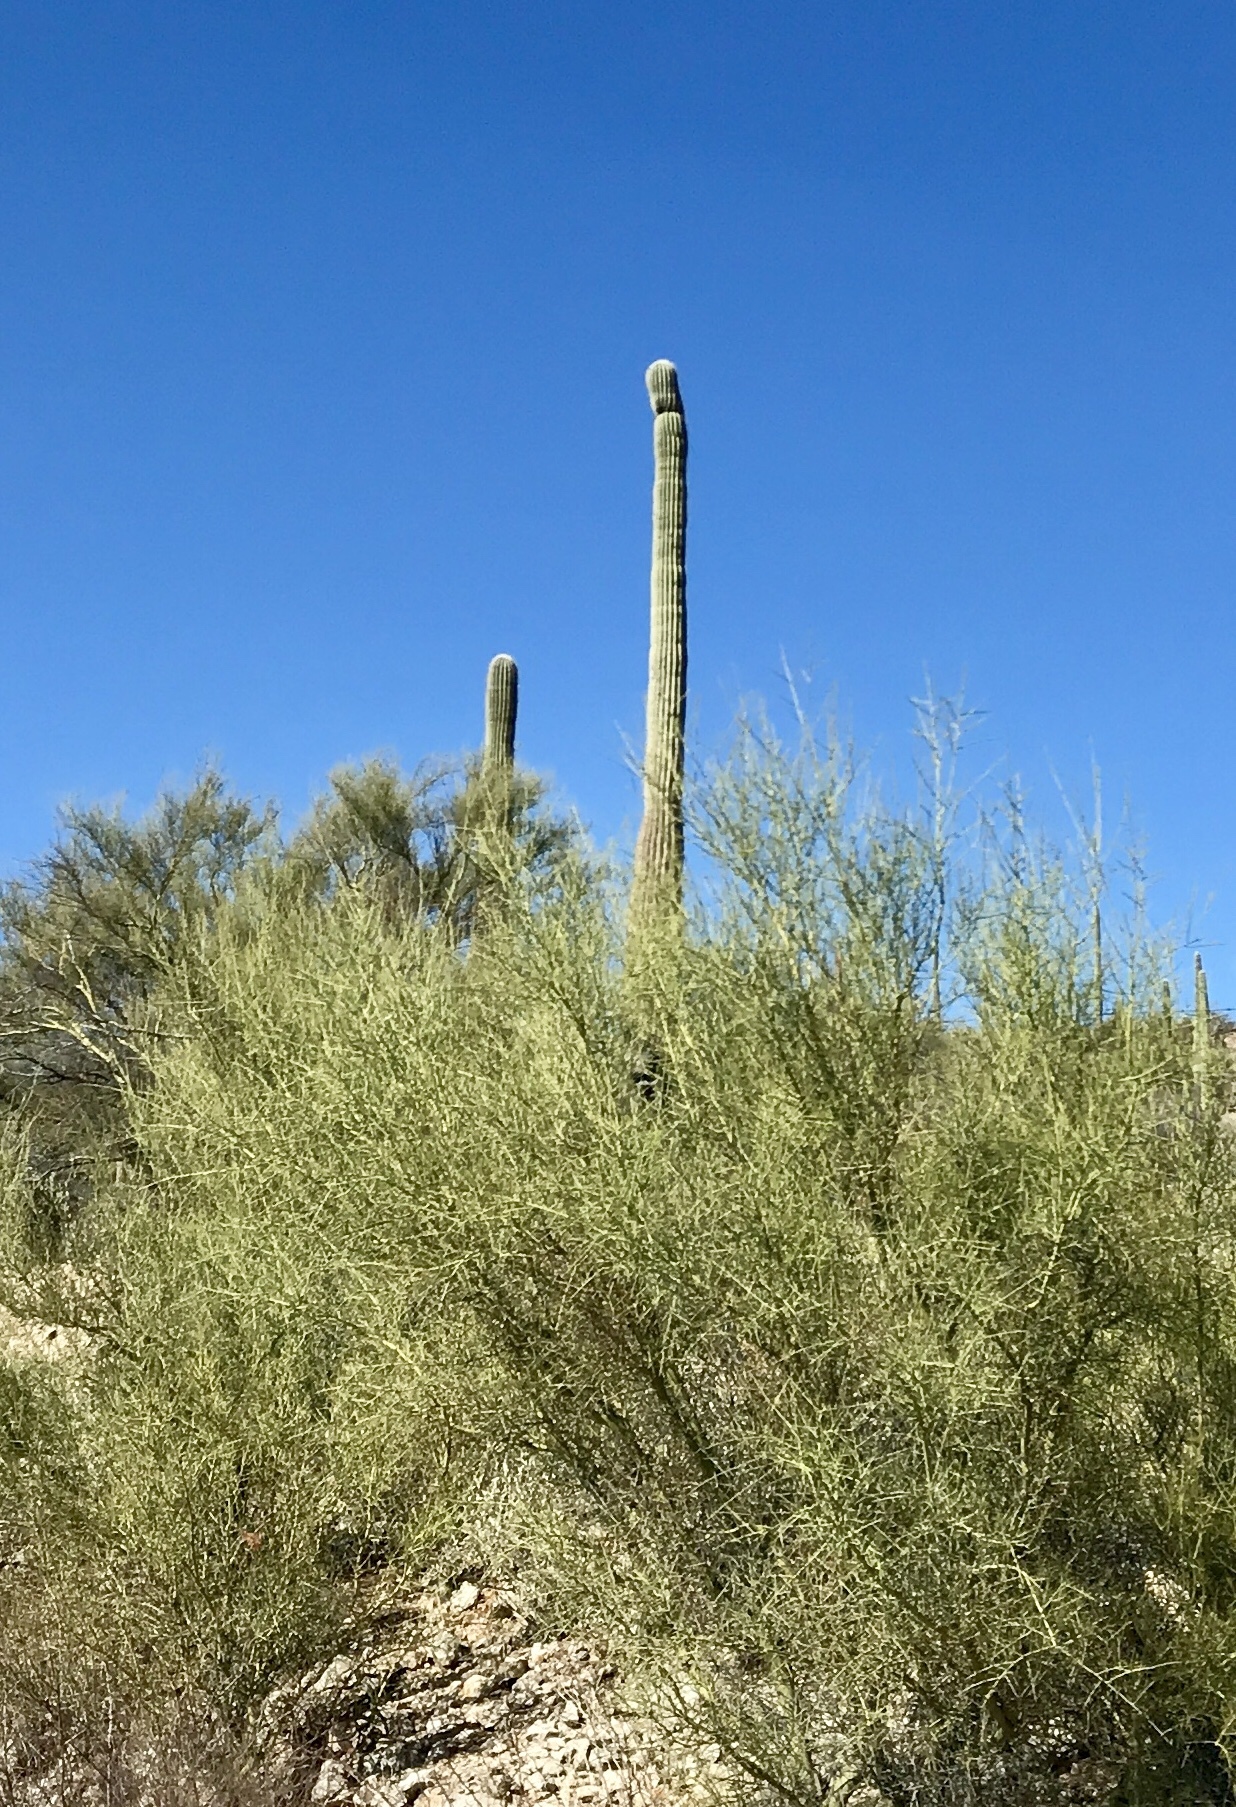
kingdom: Plantae
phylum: Tracheophyta
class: Magnoliopsida
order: Fabales
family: Fabaceae
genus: Parkinsonia
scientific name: Parkinsonia microphylla
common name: Yellow paloverde
